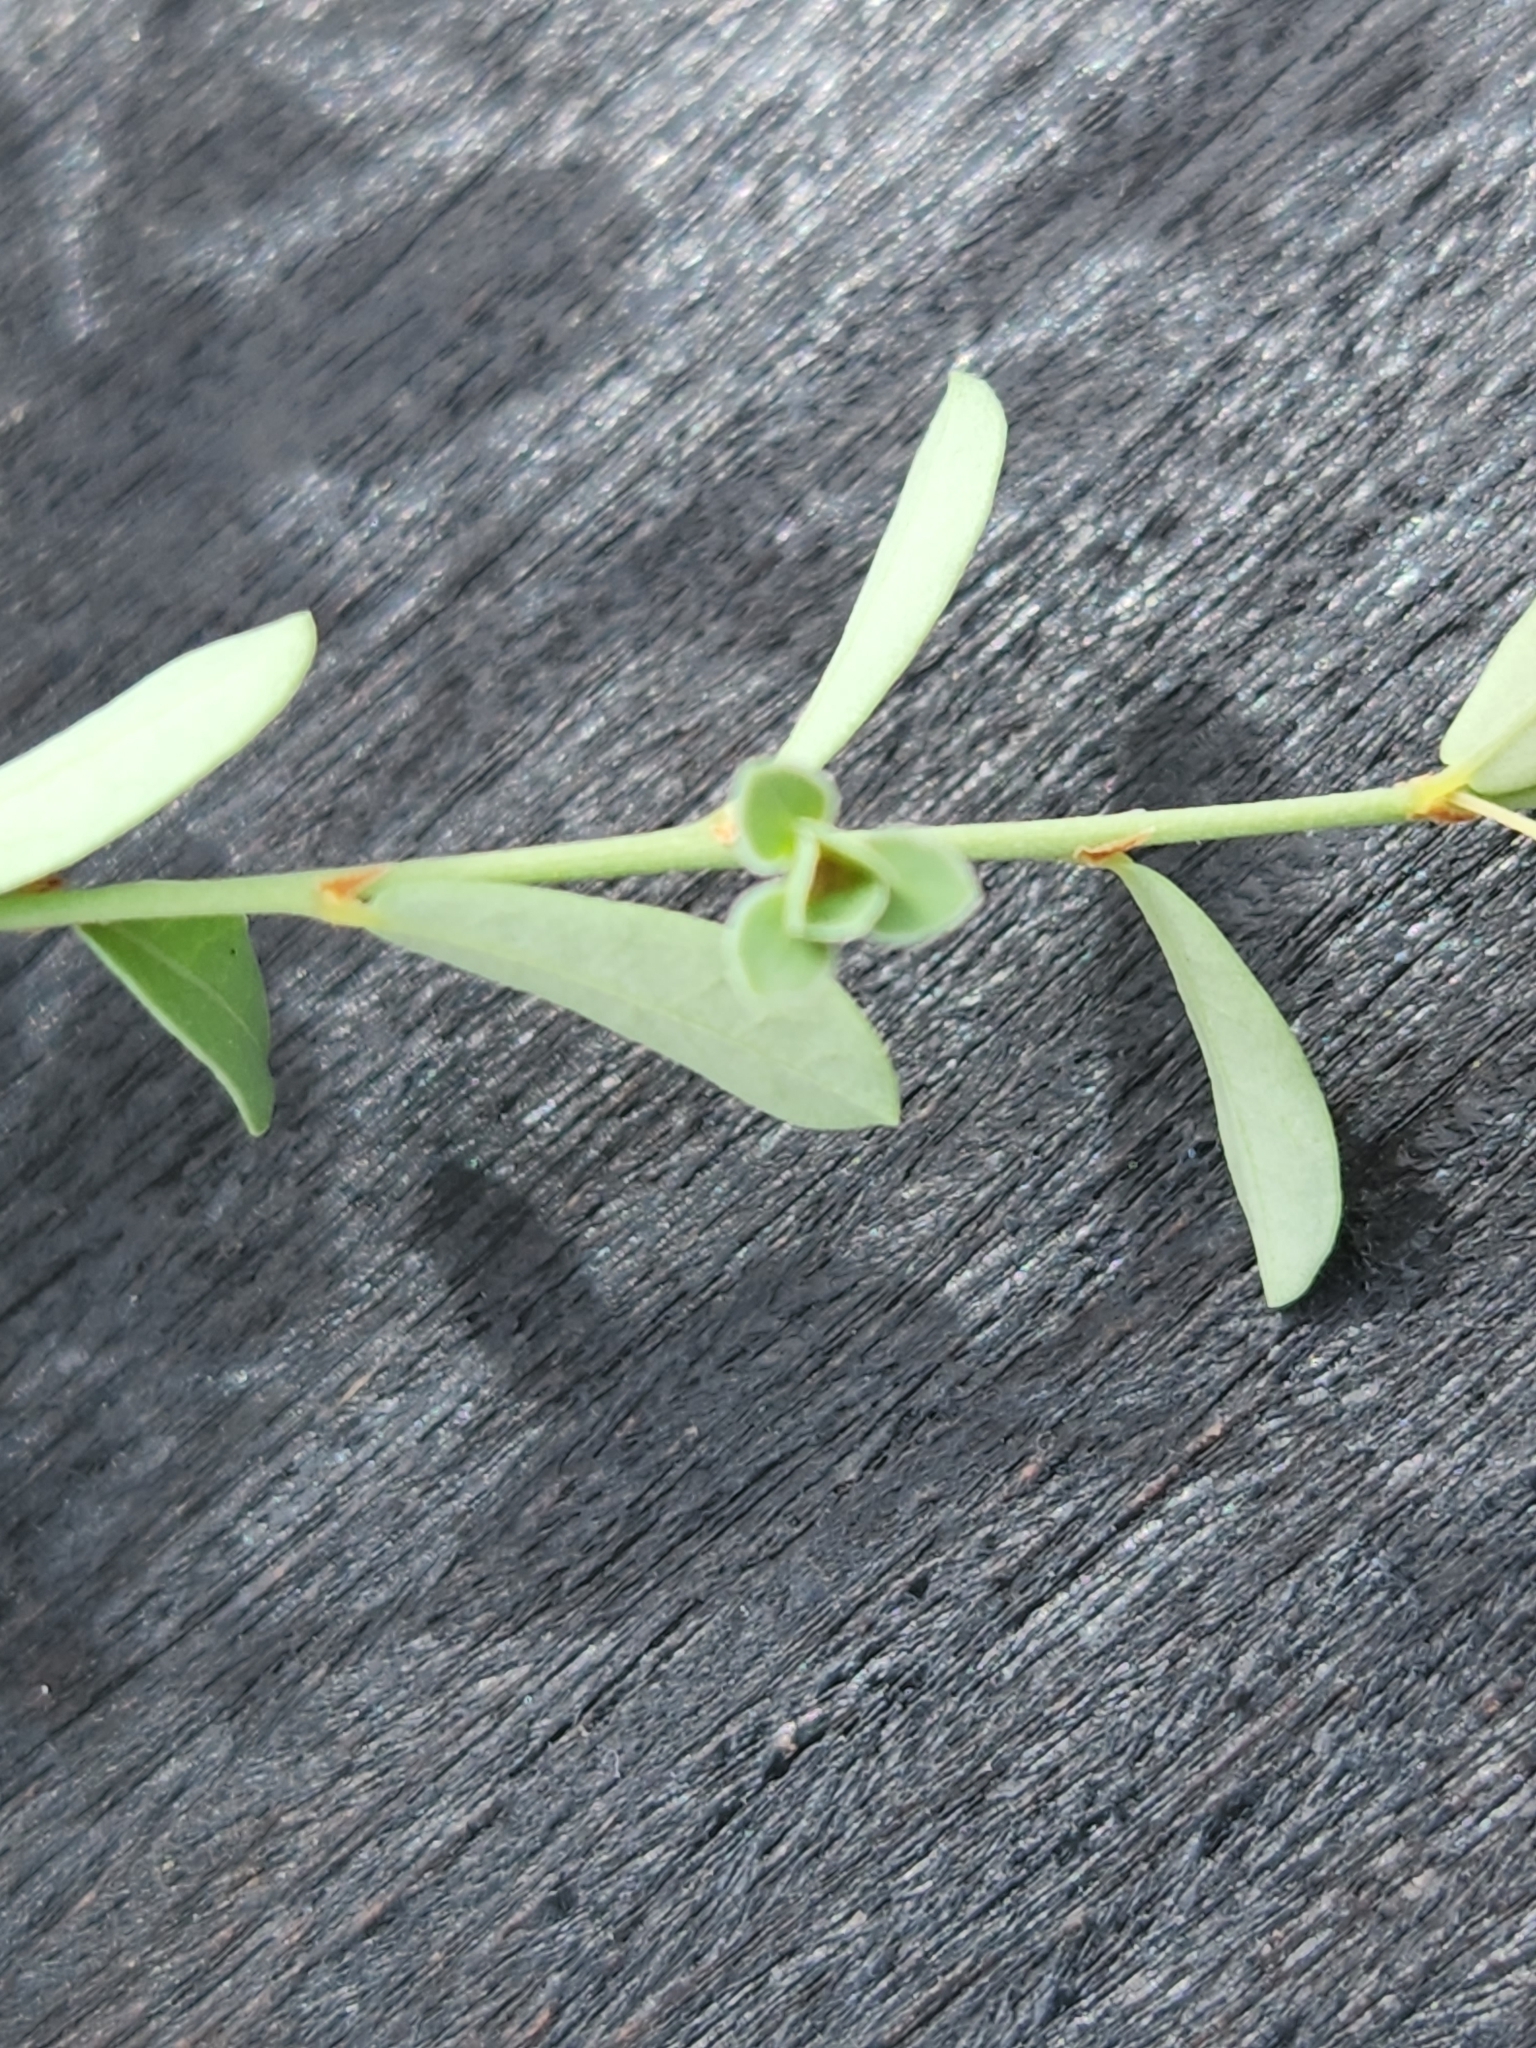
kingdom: Plantae
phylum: Tracheophyta
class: Magnoliopsida
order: Malpighiales
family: Phyllanthaceae
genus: Phyllanthus
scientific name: Phyllanthus polygonoides
